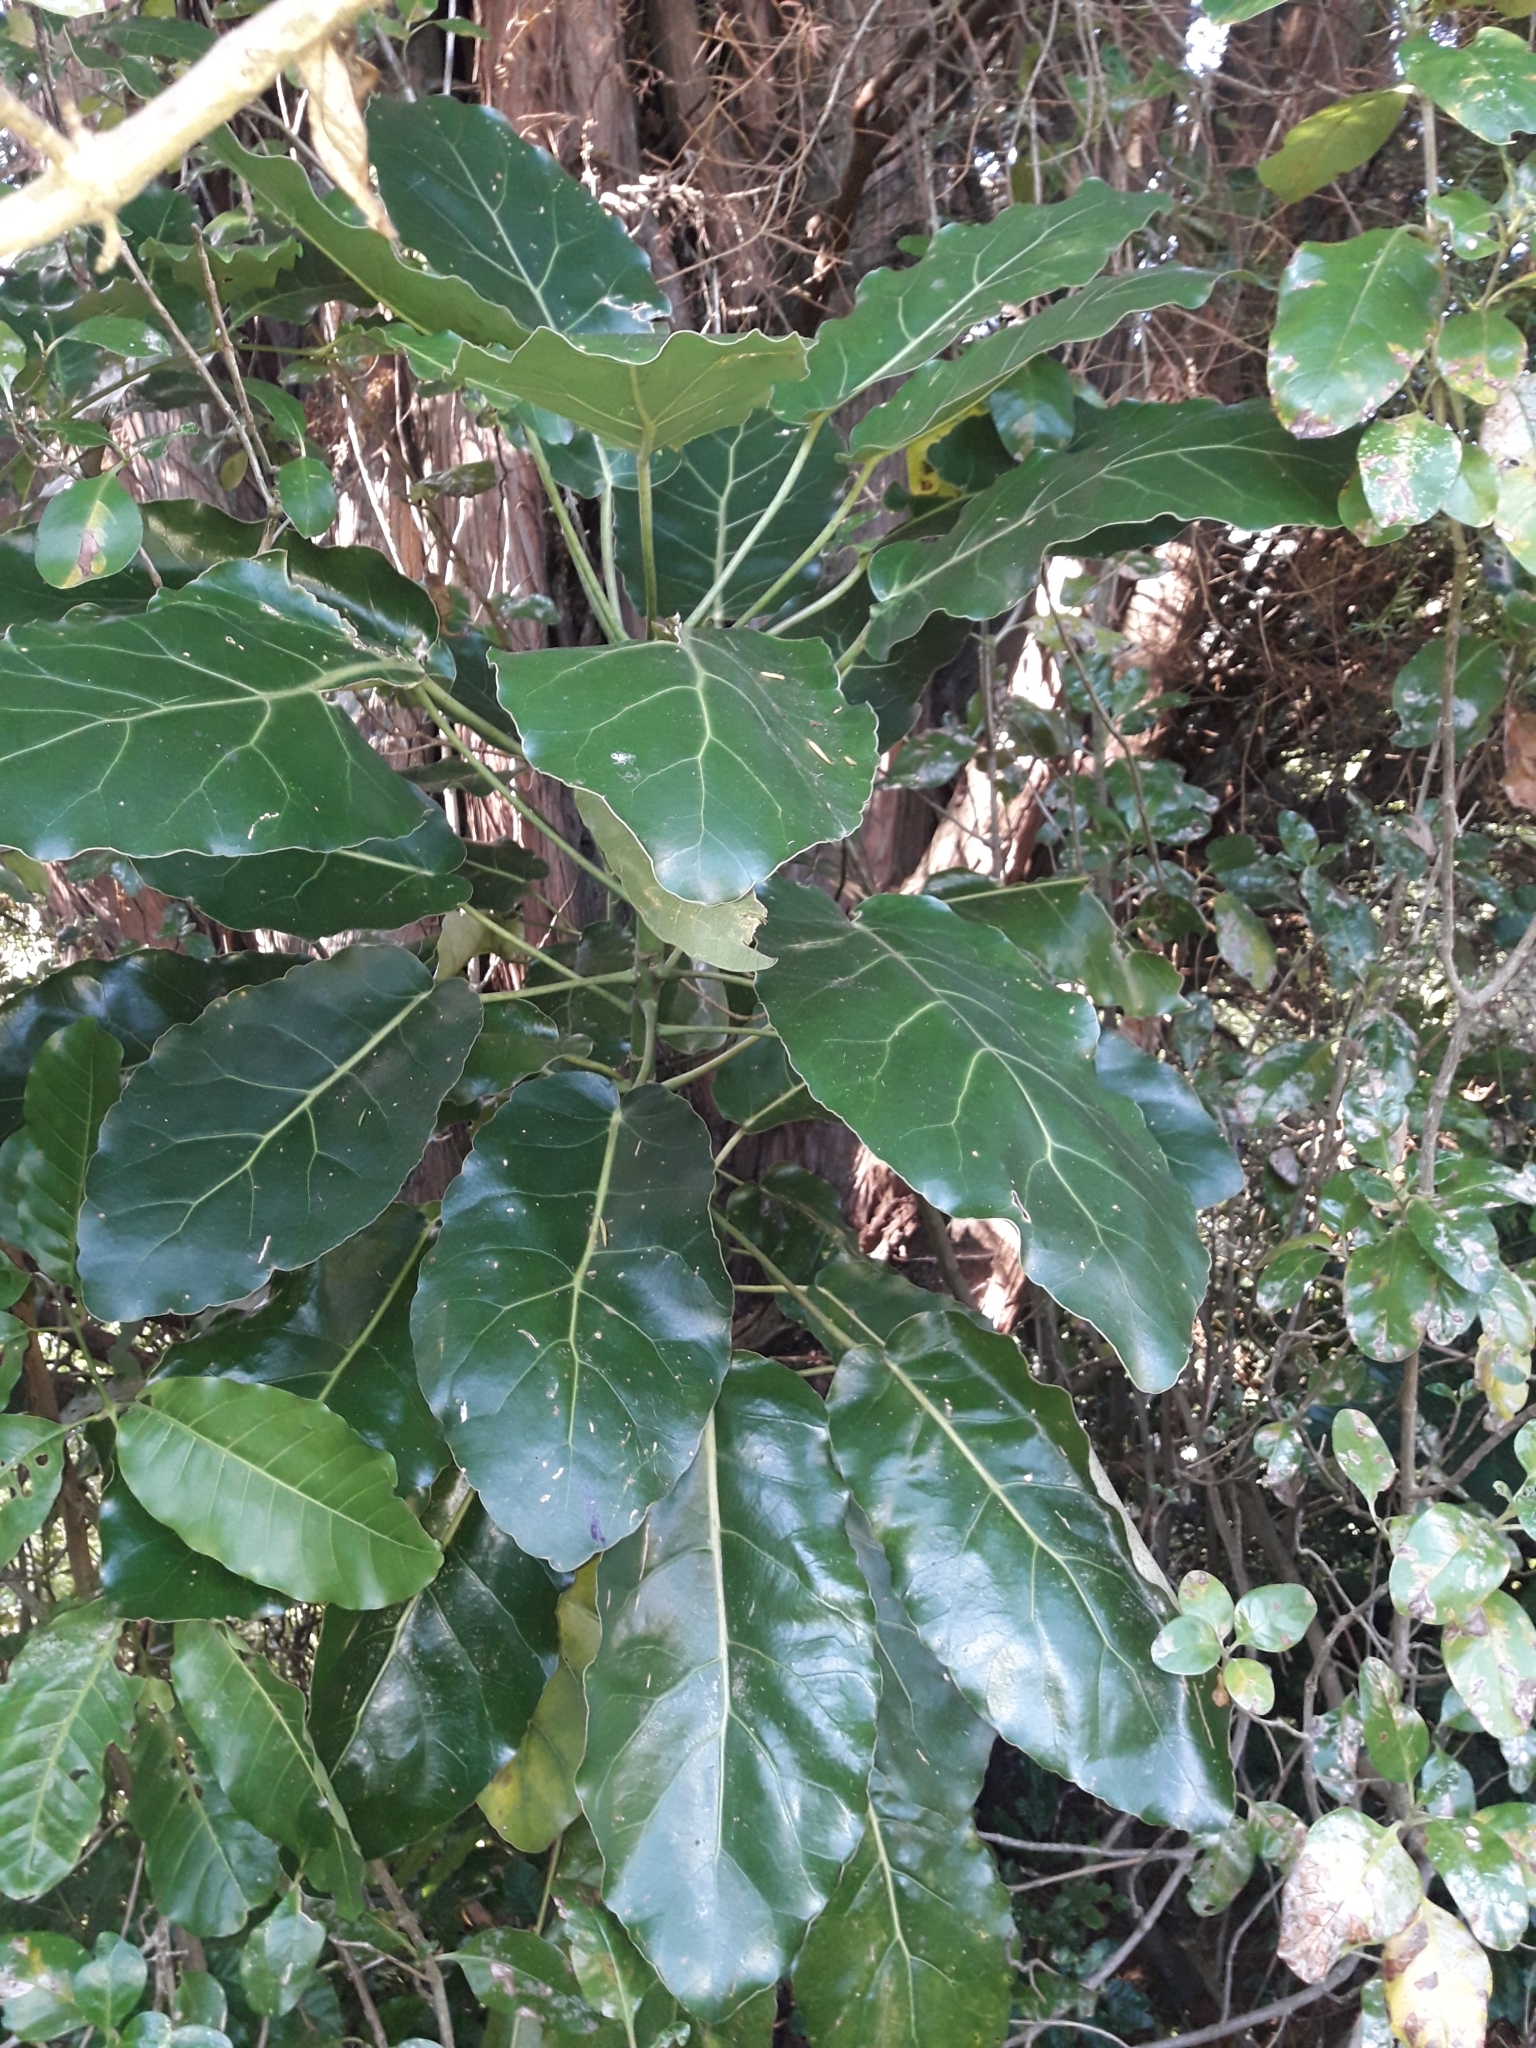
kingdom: Plantae
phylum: Tracheophyta
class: Magnoliopsida
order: Apiales
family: Araliaceae
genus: Meryta
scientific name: Meryta sinclairii
